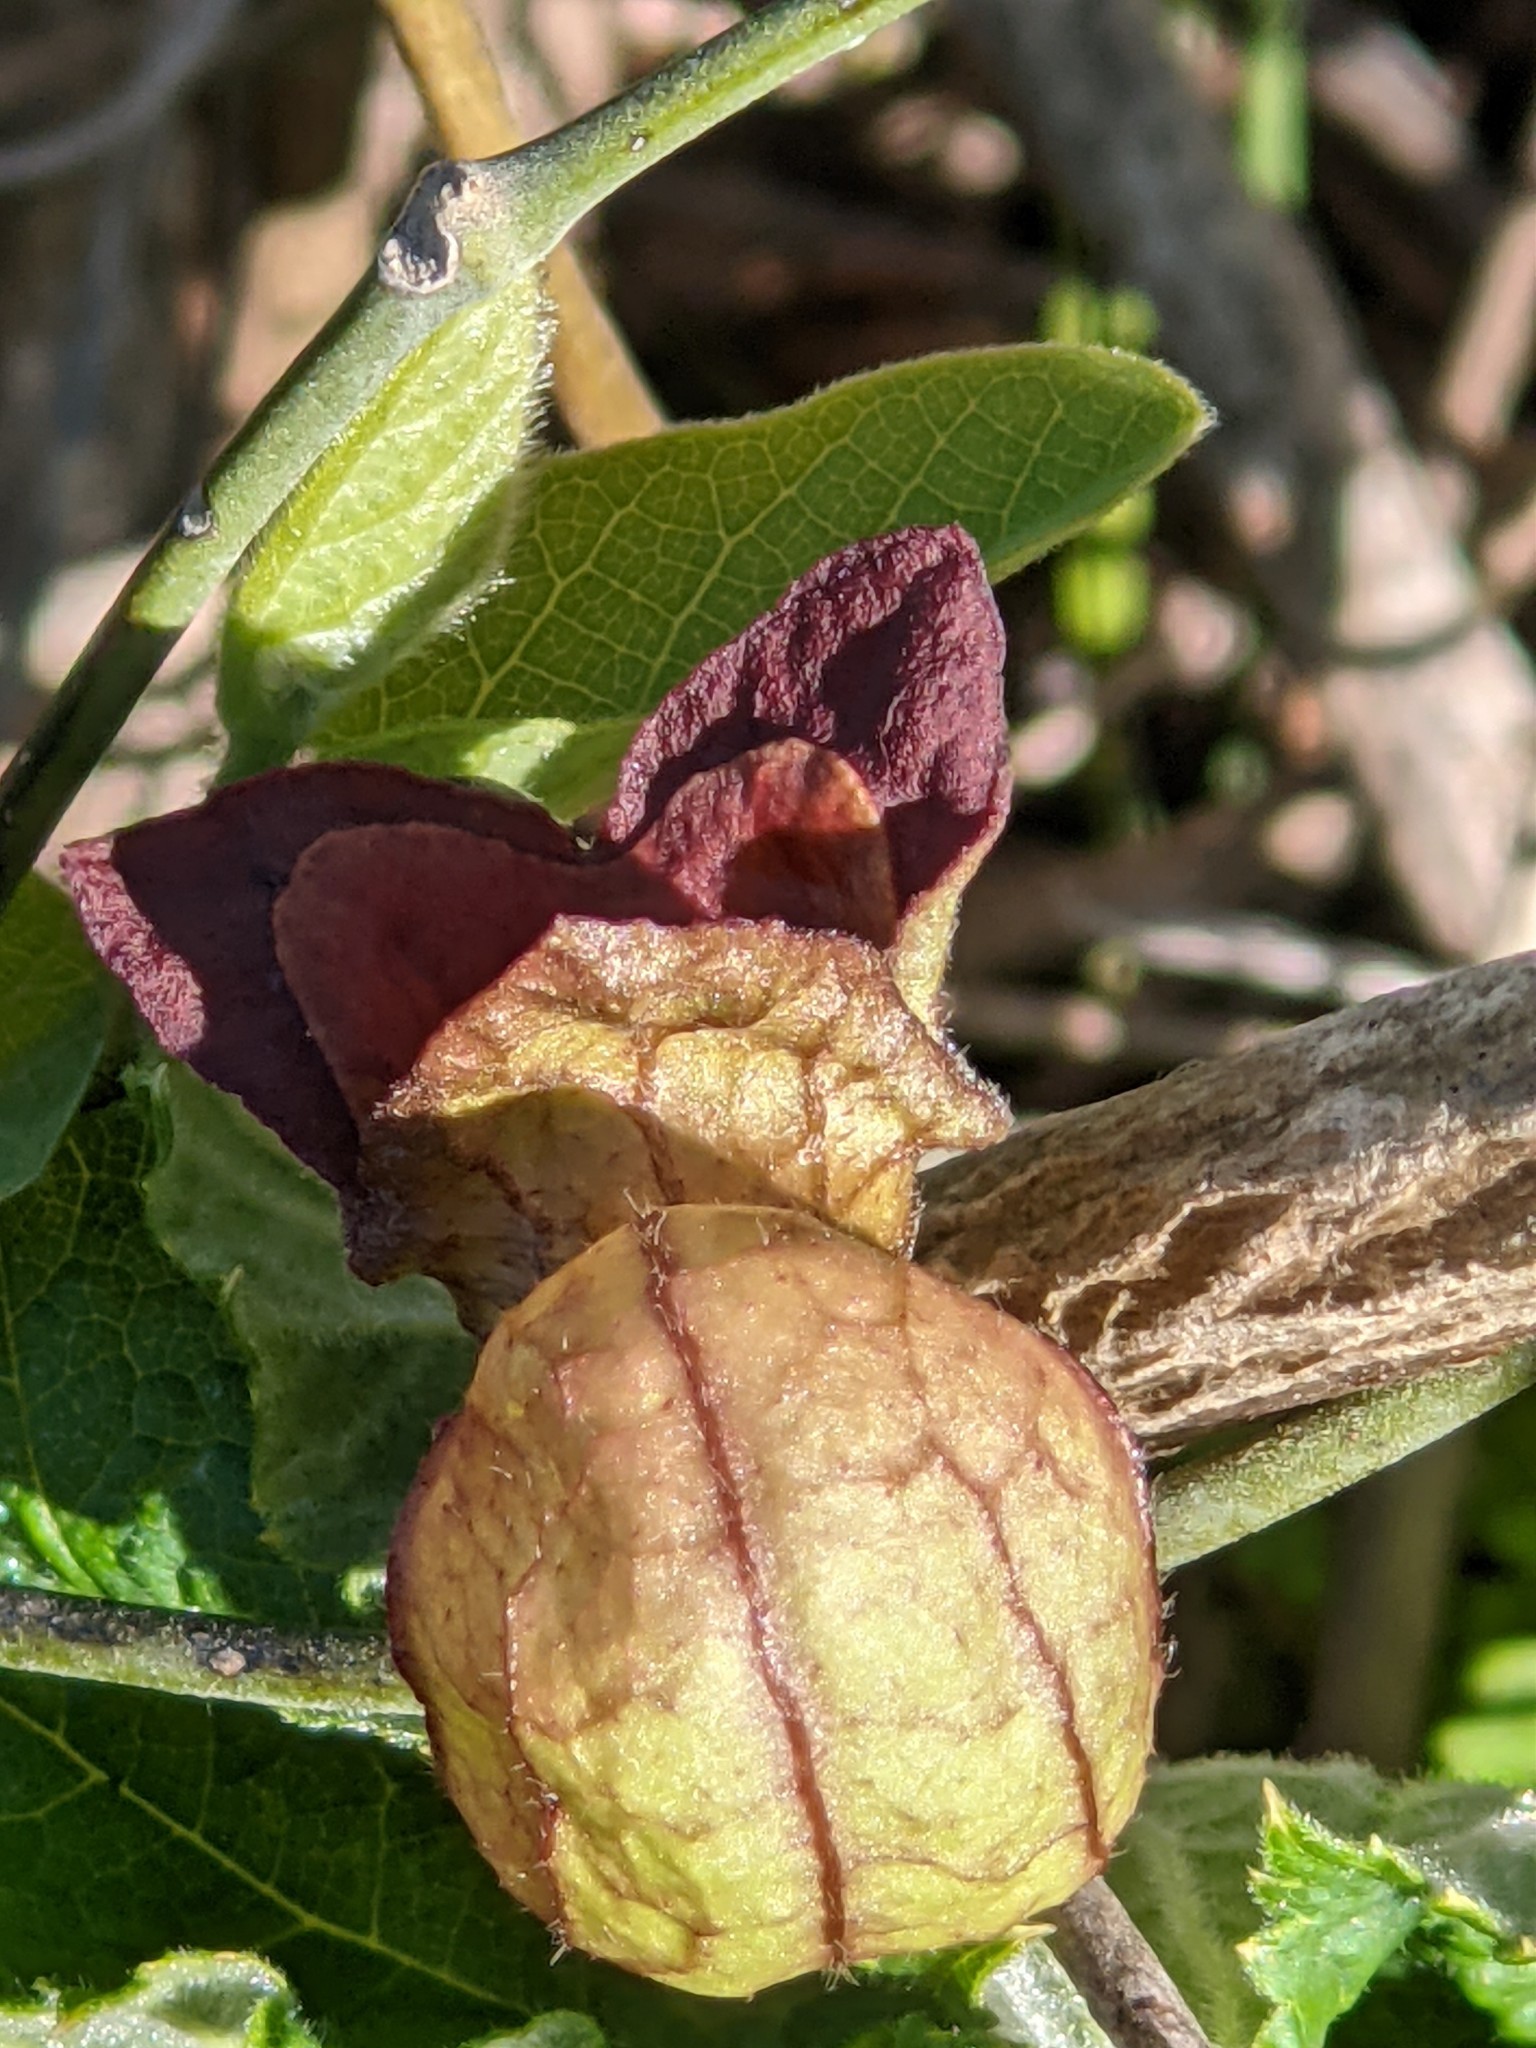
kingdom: Plantae
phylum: Tracheophyta
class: Magnoliopsida
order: Piperales
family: Aristolochiaceae
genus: Isotrema
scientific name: Isotrema californicum
